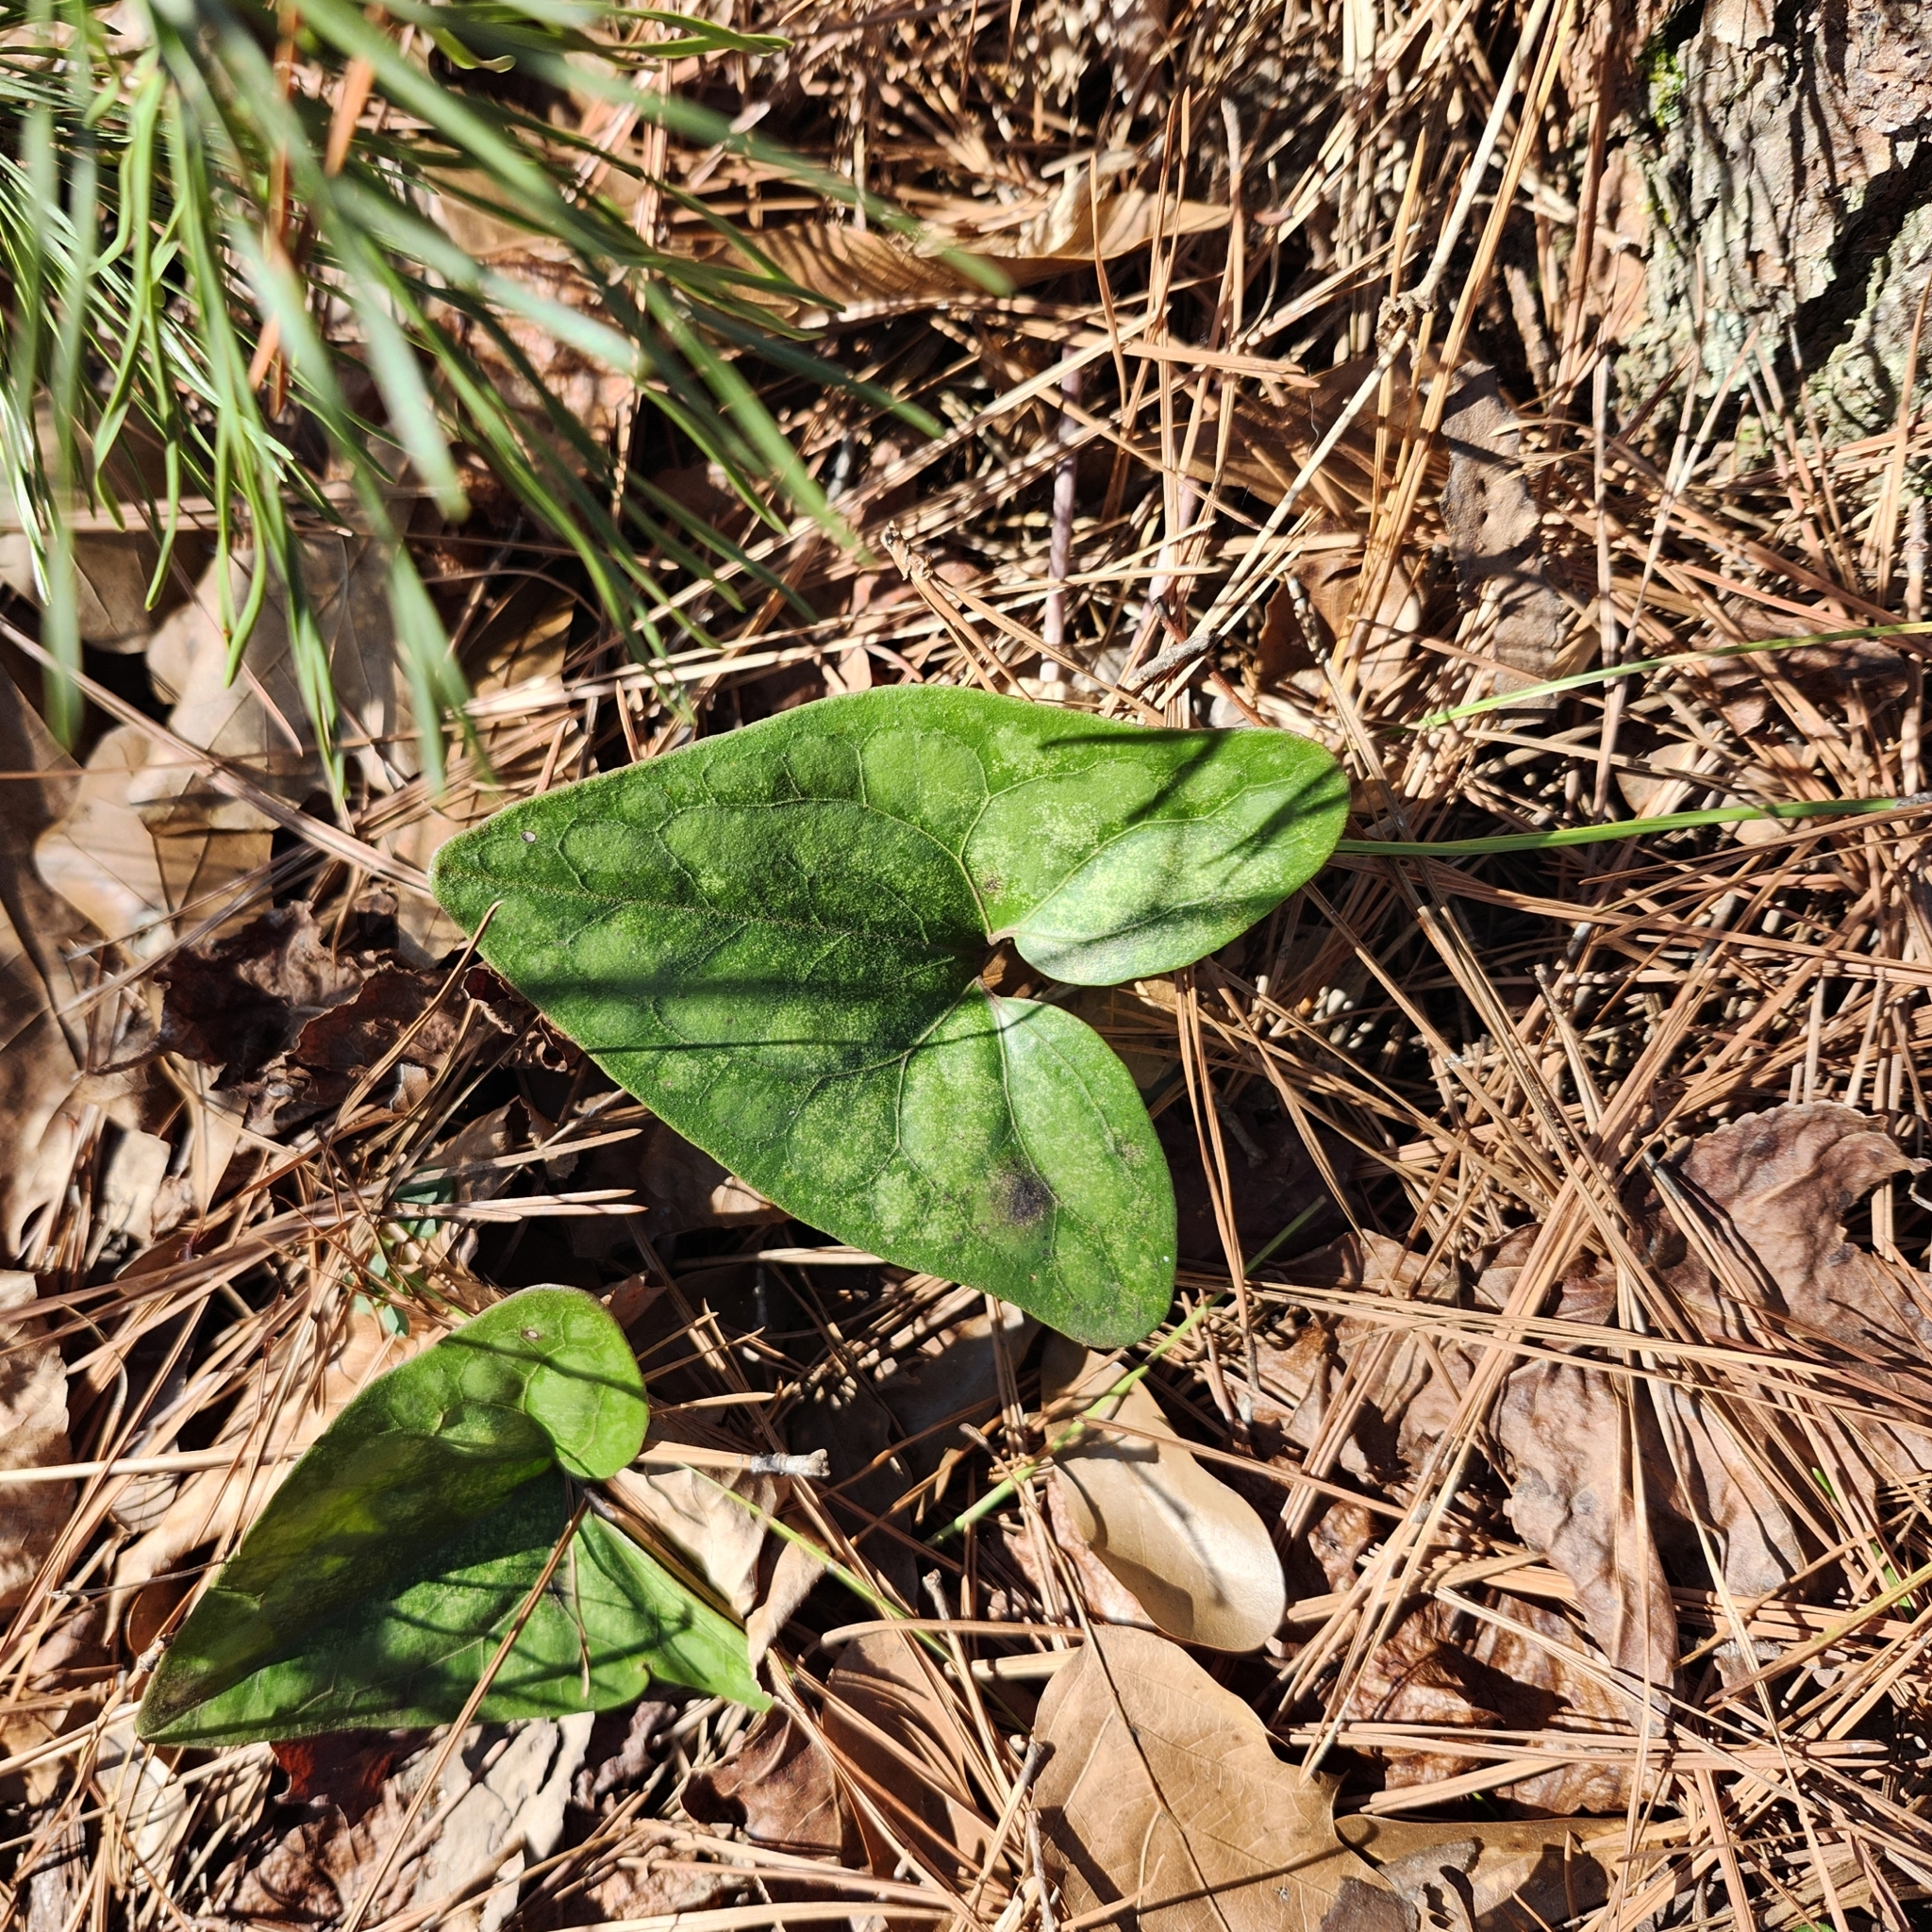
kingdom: Plantae
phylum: Tracheophyta
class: Magnoliopsida
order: Piperales
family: Aristolochiaceae
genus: Hexastylis
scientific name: Hexastylis arifolia
